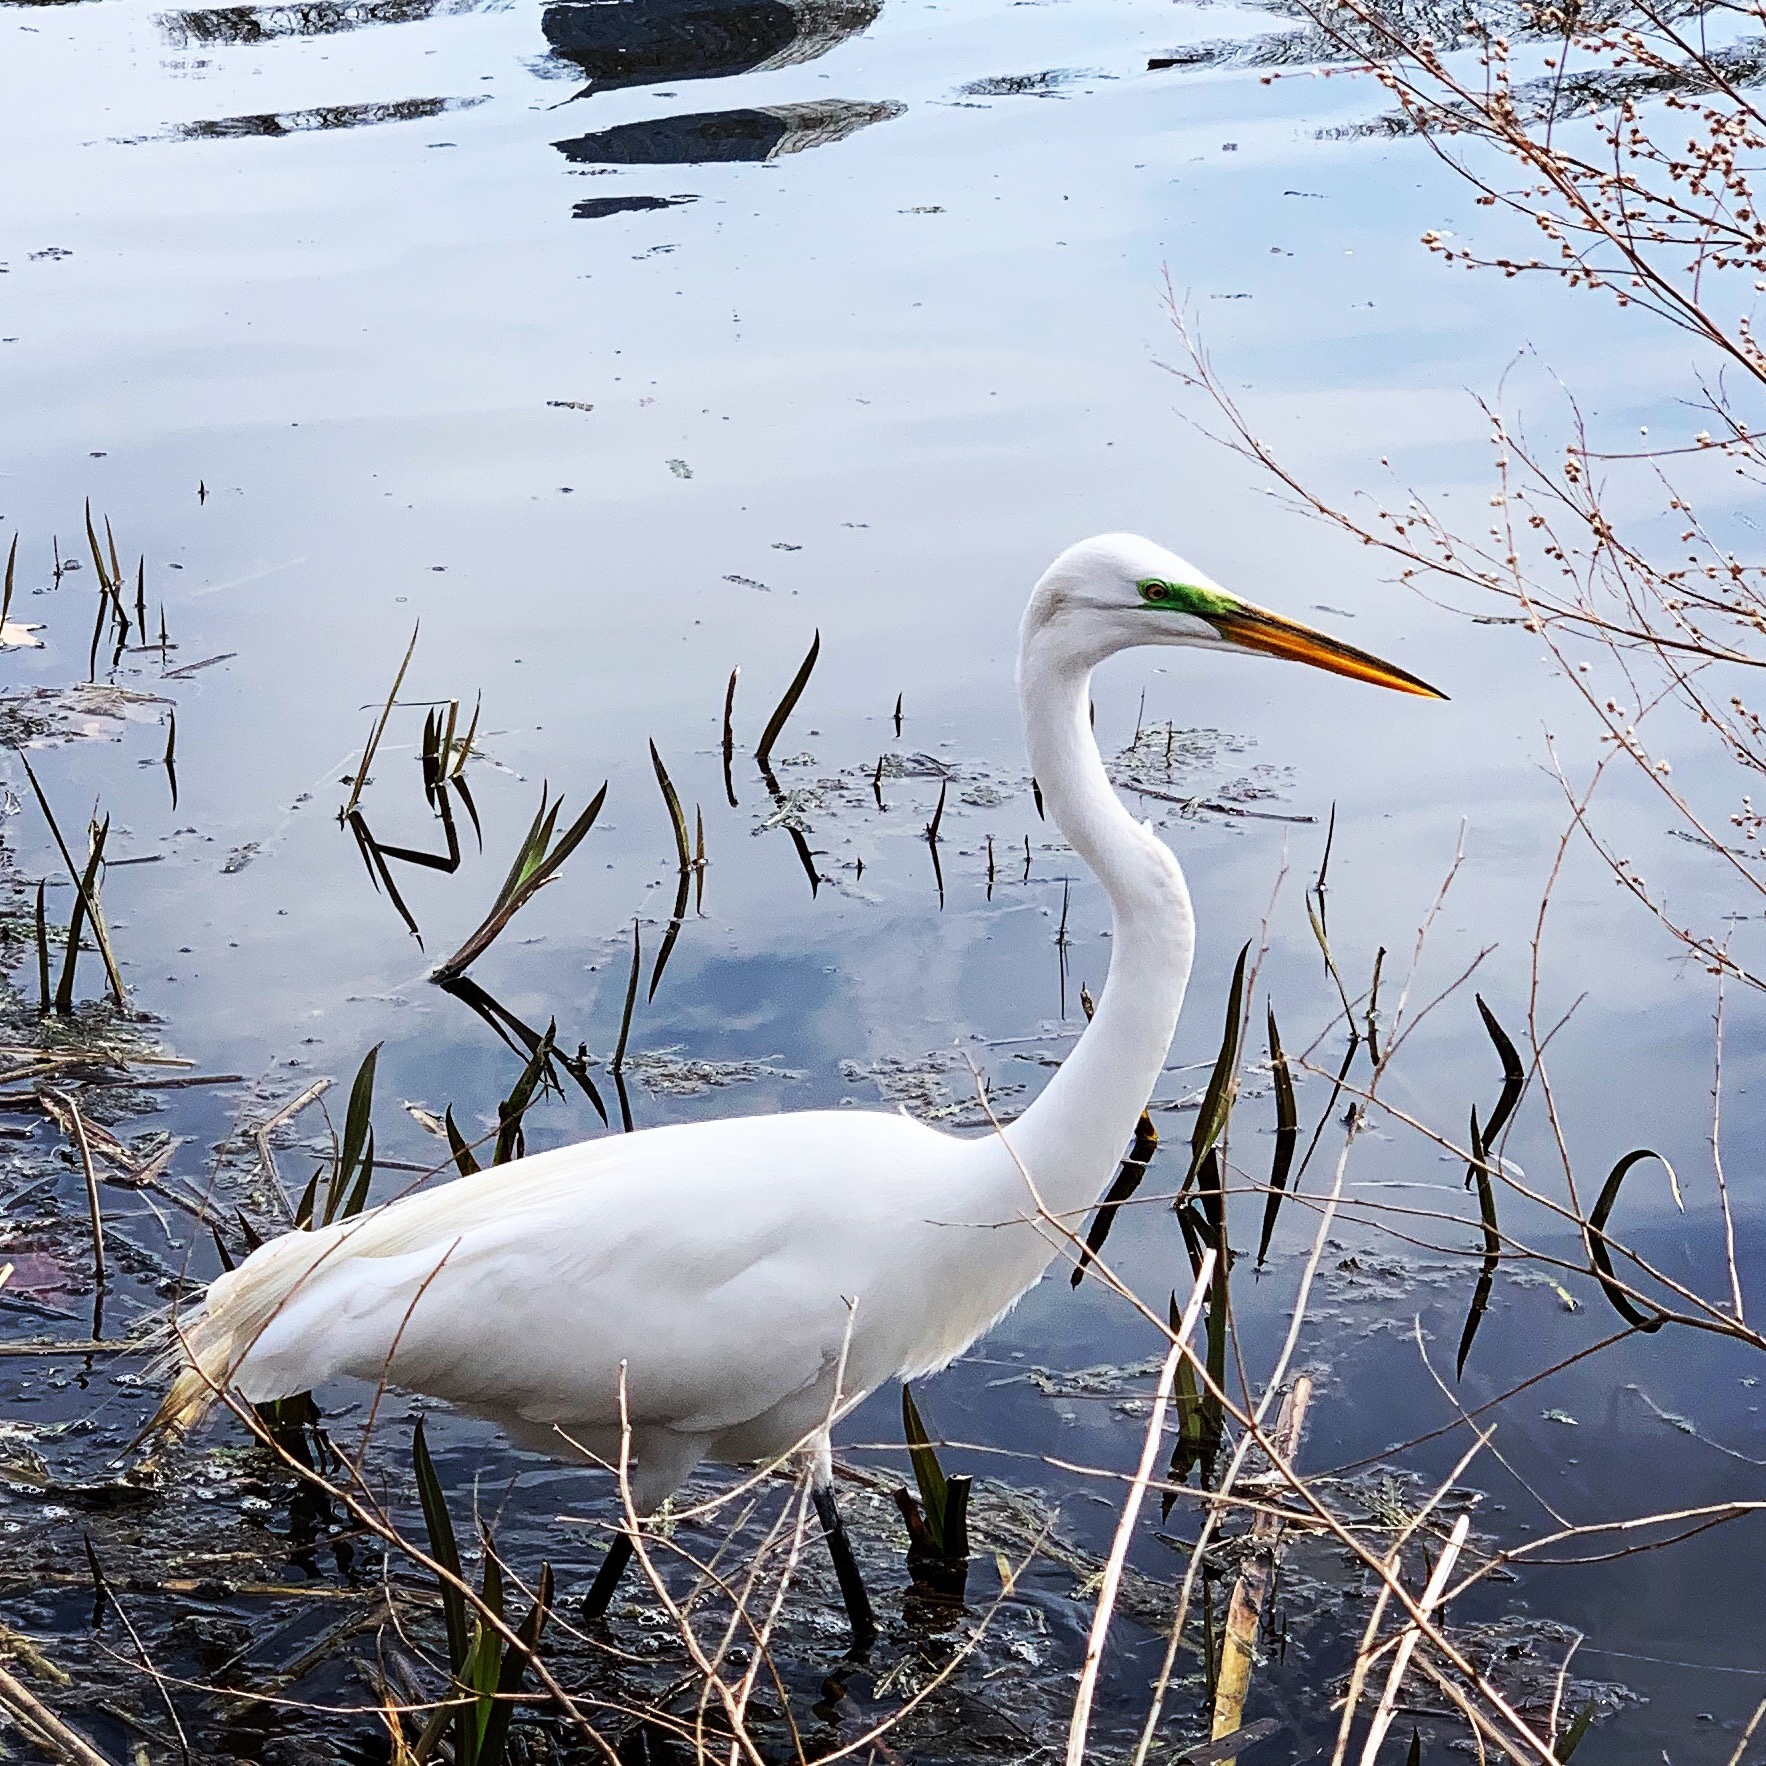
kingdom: Animalia
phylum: Chordata
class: Aves
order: Pelecaniformes
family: Ardeidae
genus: Ardea
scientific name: Ardea alba
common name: Great egret
